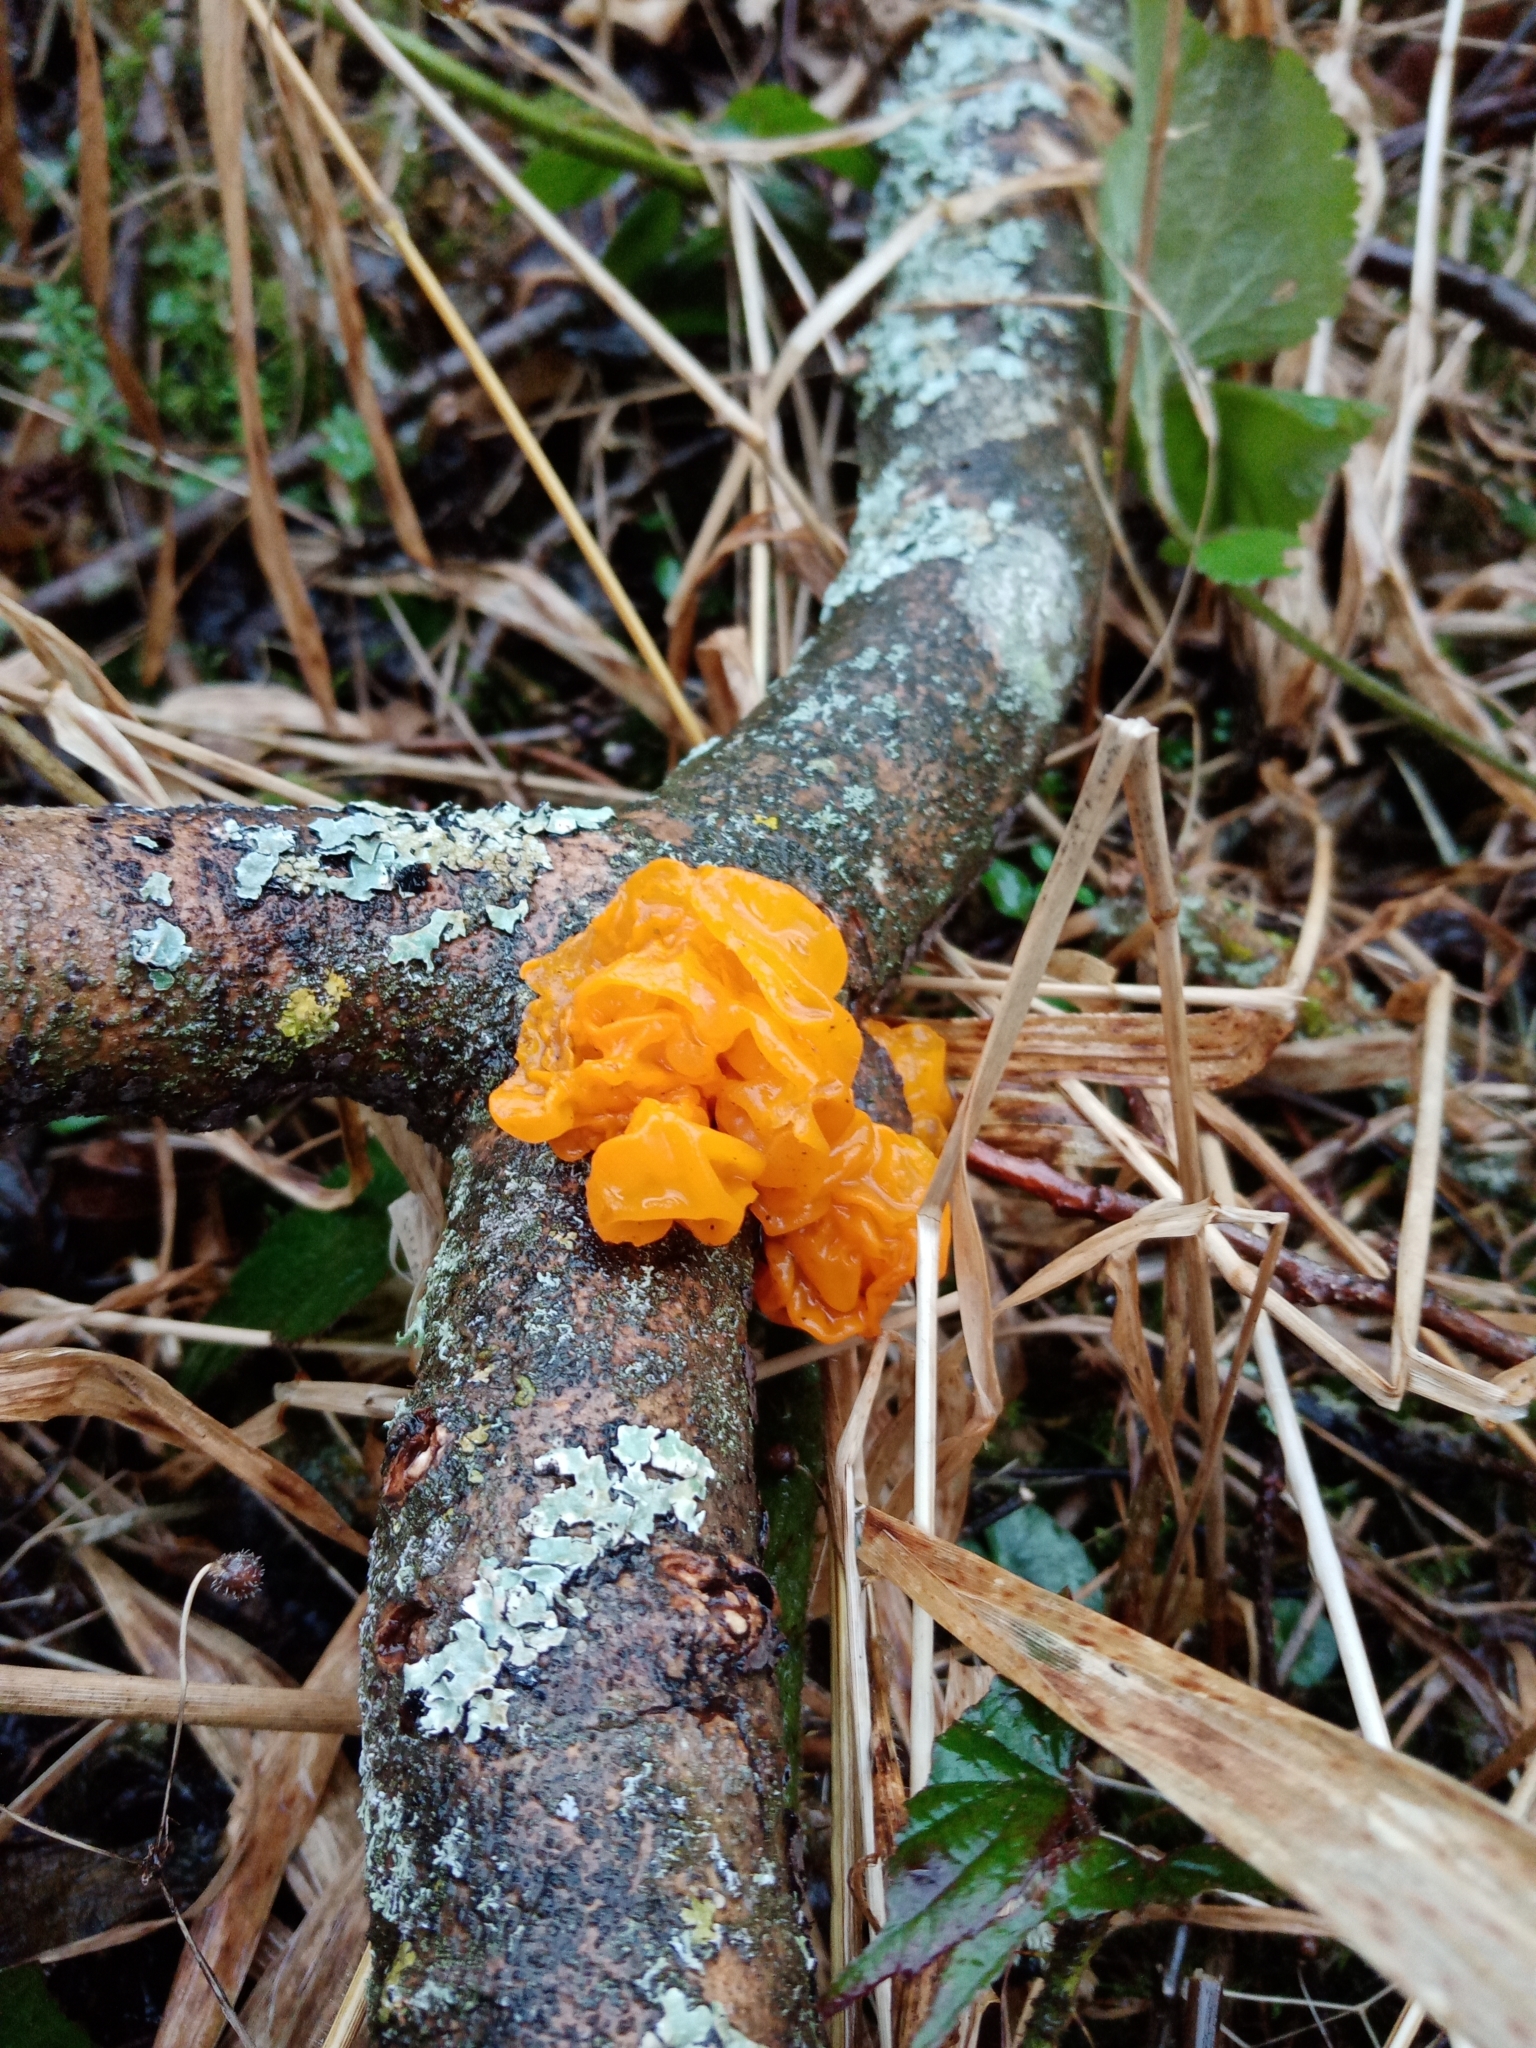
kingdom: Fungi
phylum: Basidiomycota
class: Tremellomycetes
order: Tremellales
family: Tremellaceae
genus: Tremella
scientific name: Tremella mesenterica
